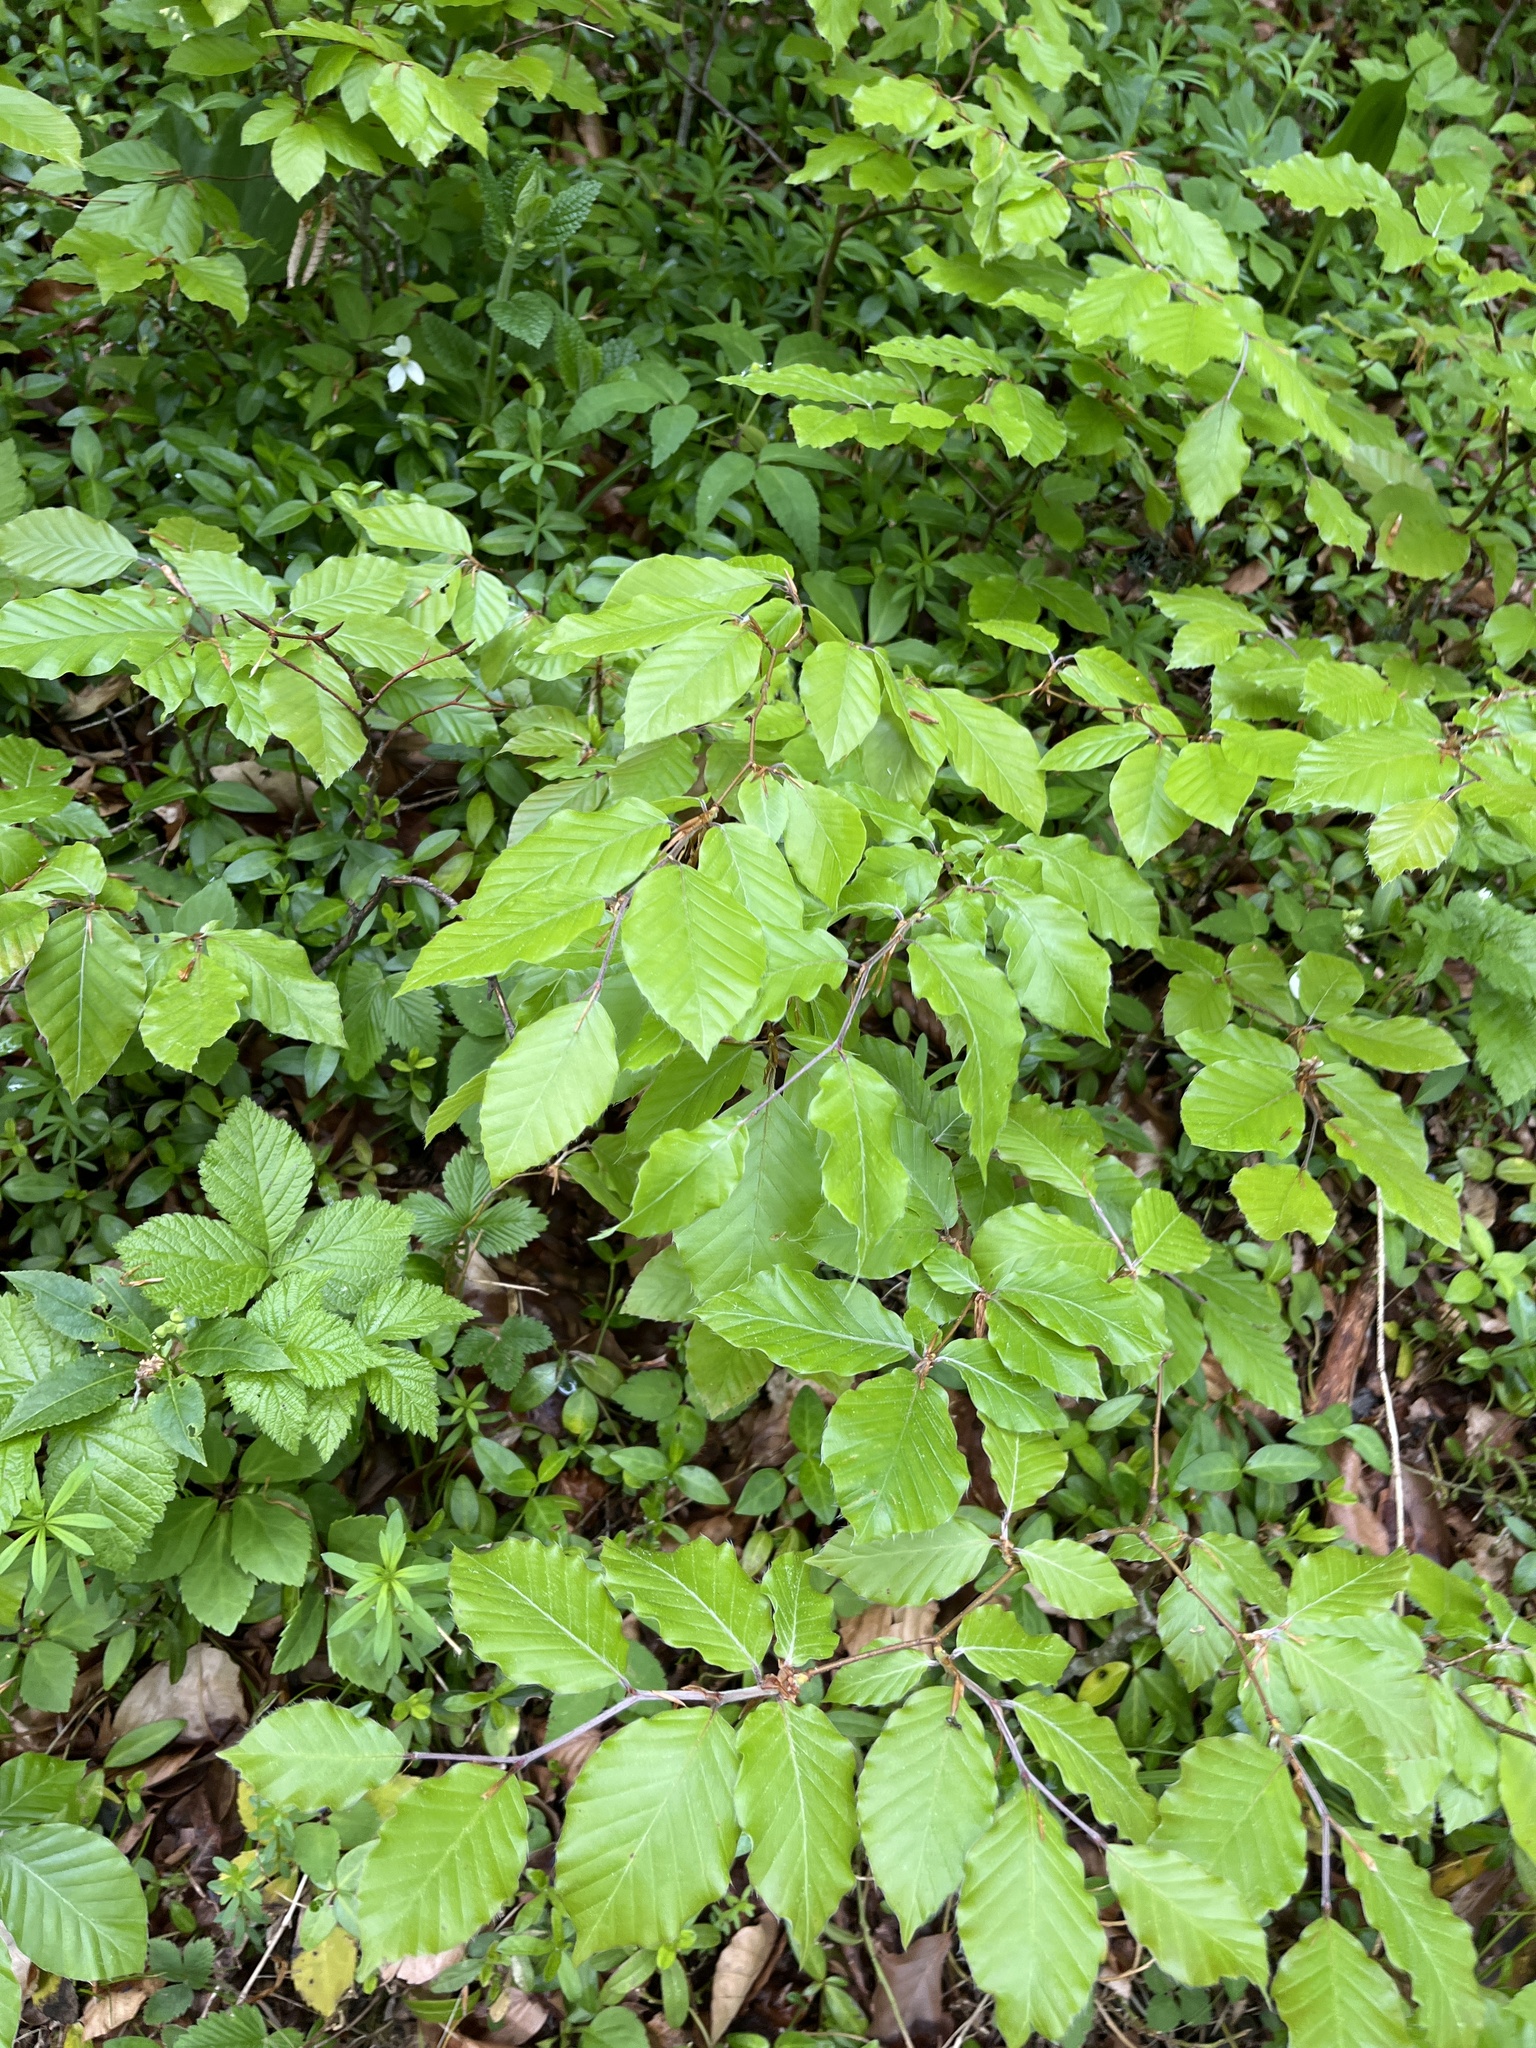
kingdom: Plantae
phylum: Tracheophyta
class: Magnoliopsida
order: Fagales
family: Fagaceae
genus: Fagus
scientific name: Fagus sylvatica
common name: Beech
